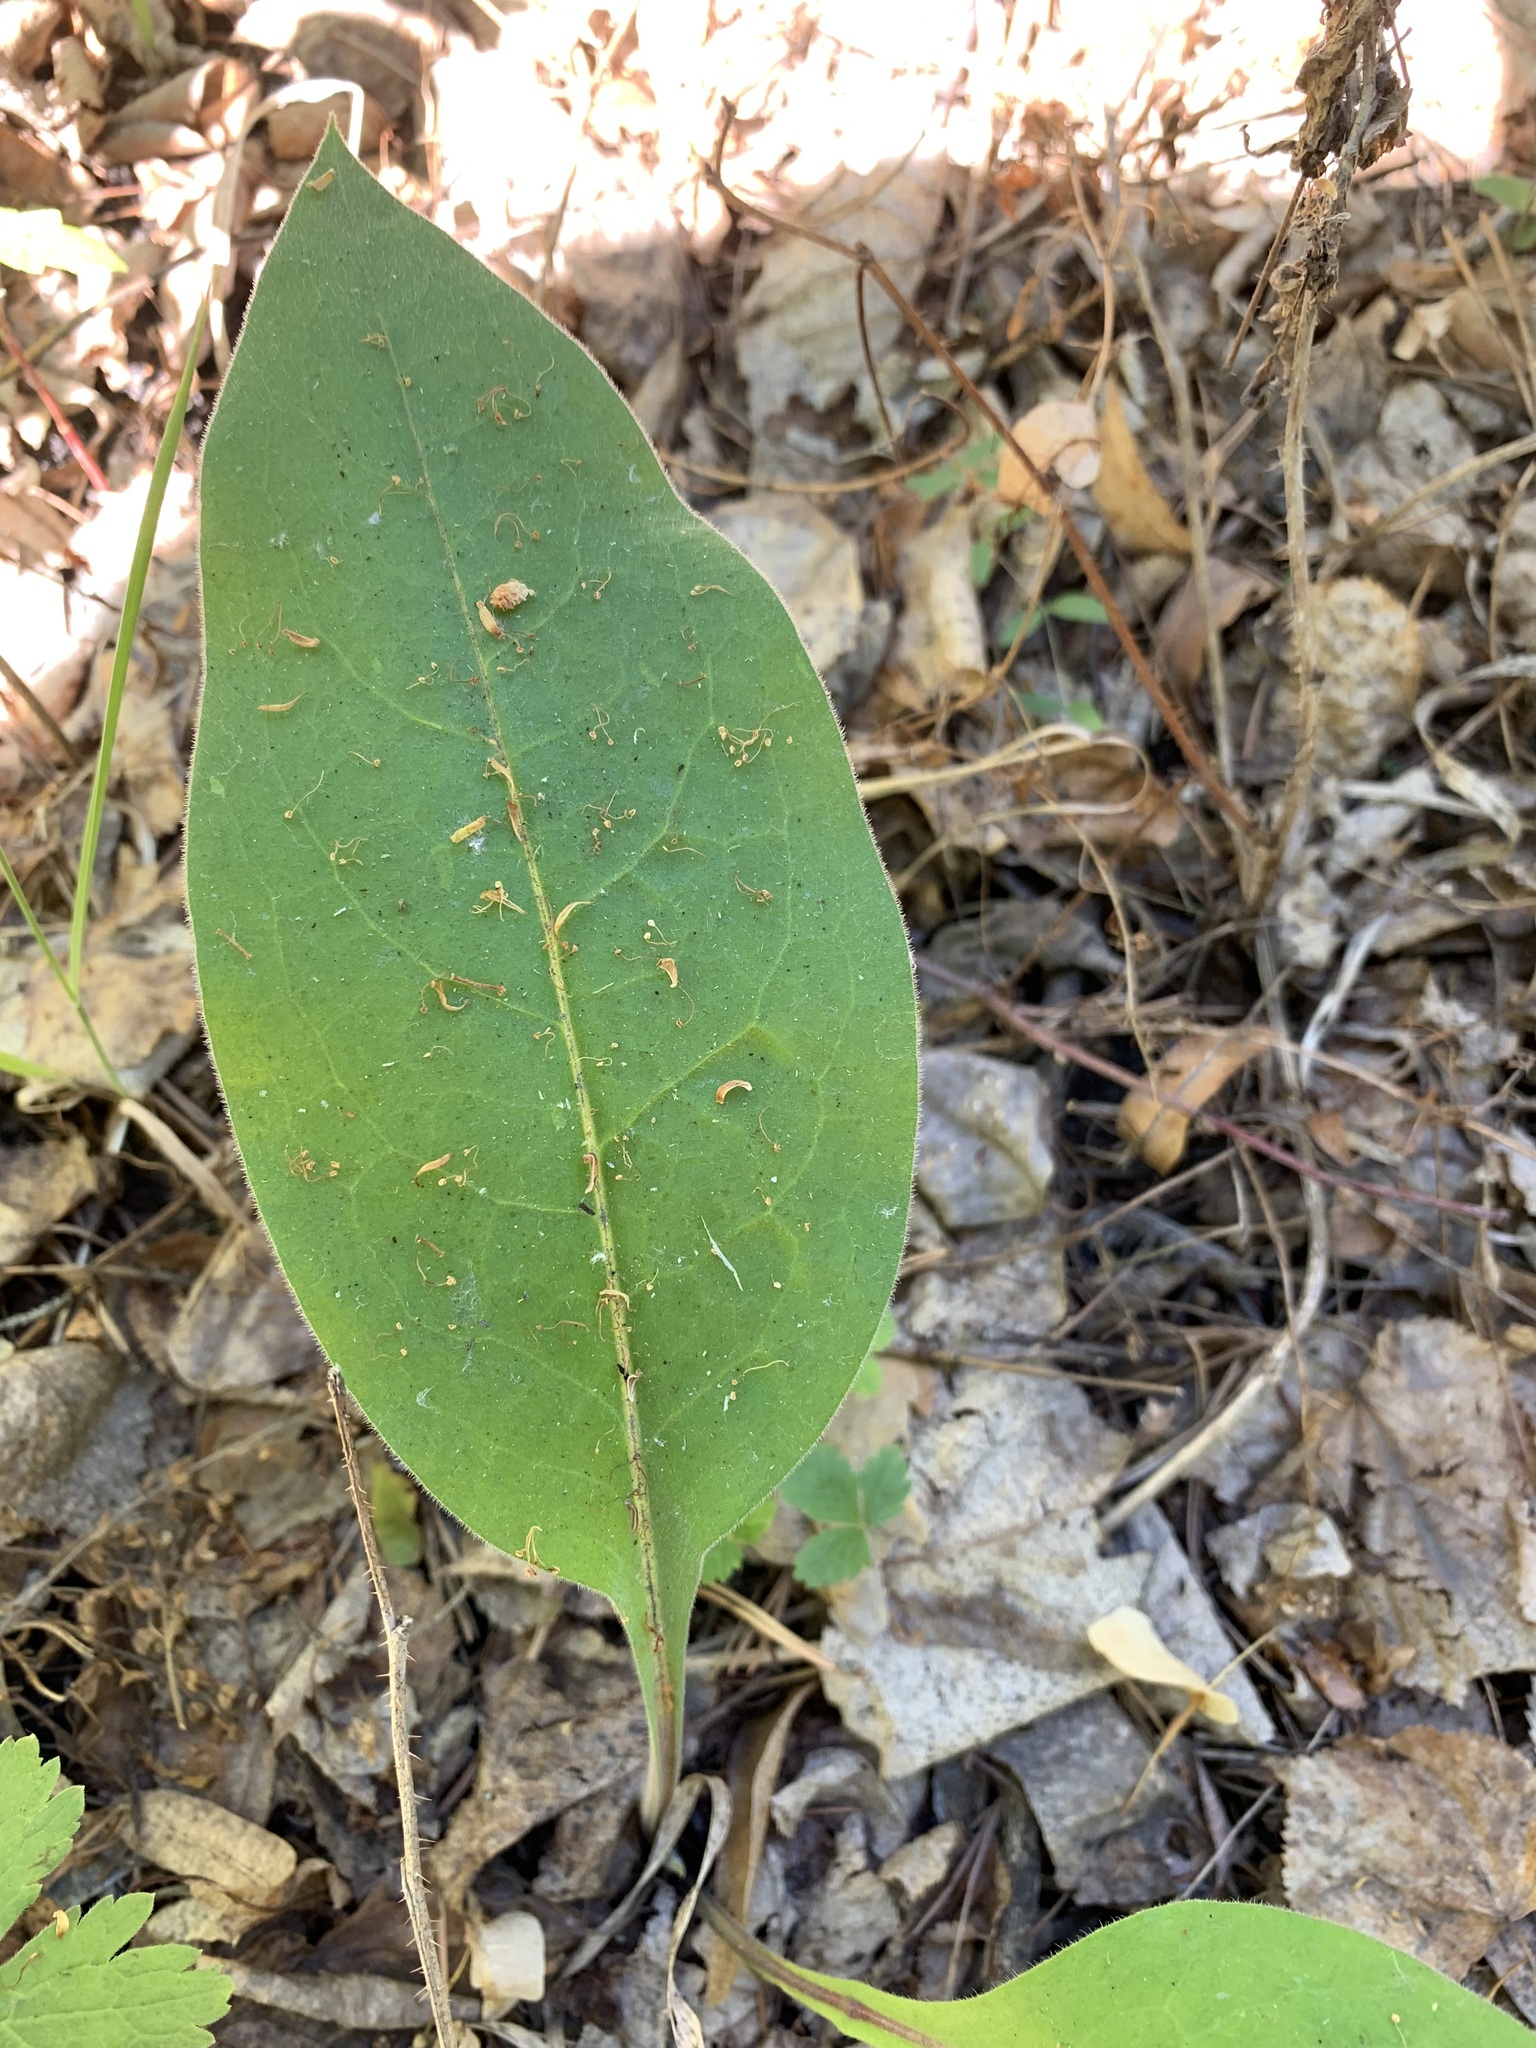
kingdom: Plantae
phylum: Tracheophyta
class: Magnoliopsida
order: Boraginales
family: Boraginaceae
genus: Pulmonaria
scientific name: Pulmonaria mollis
